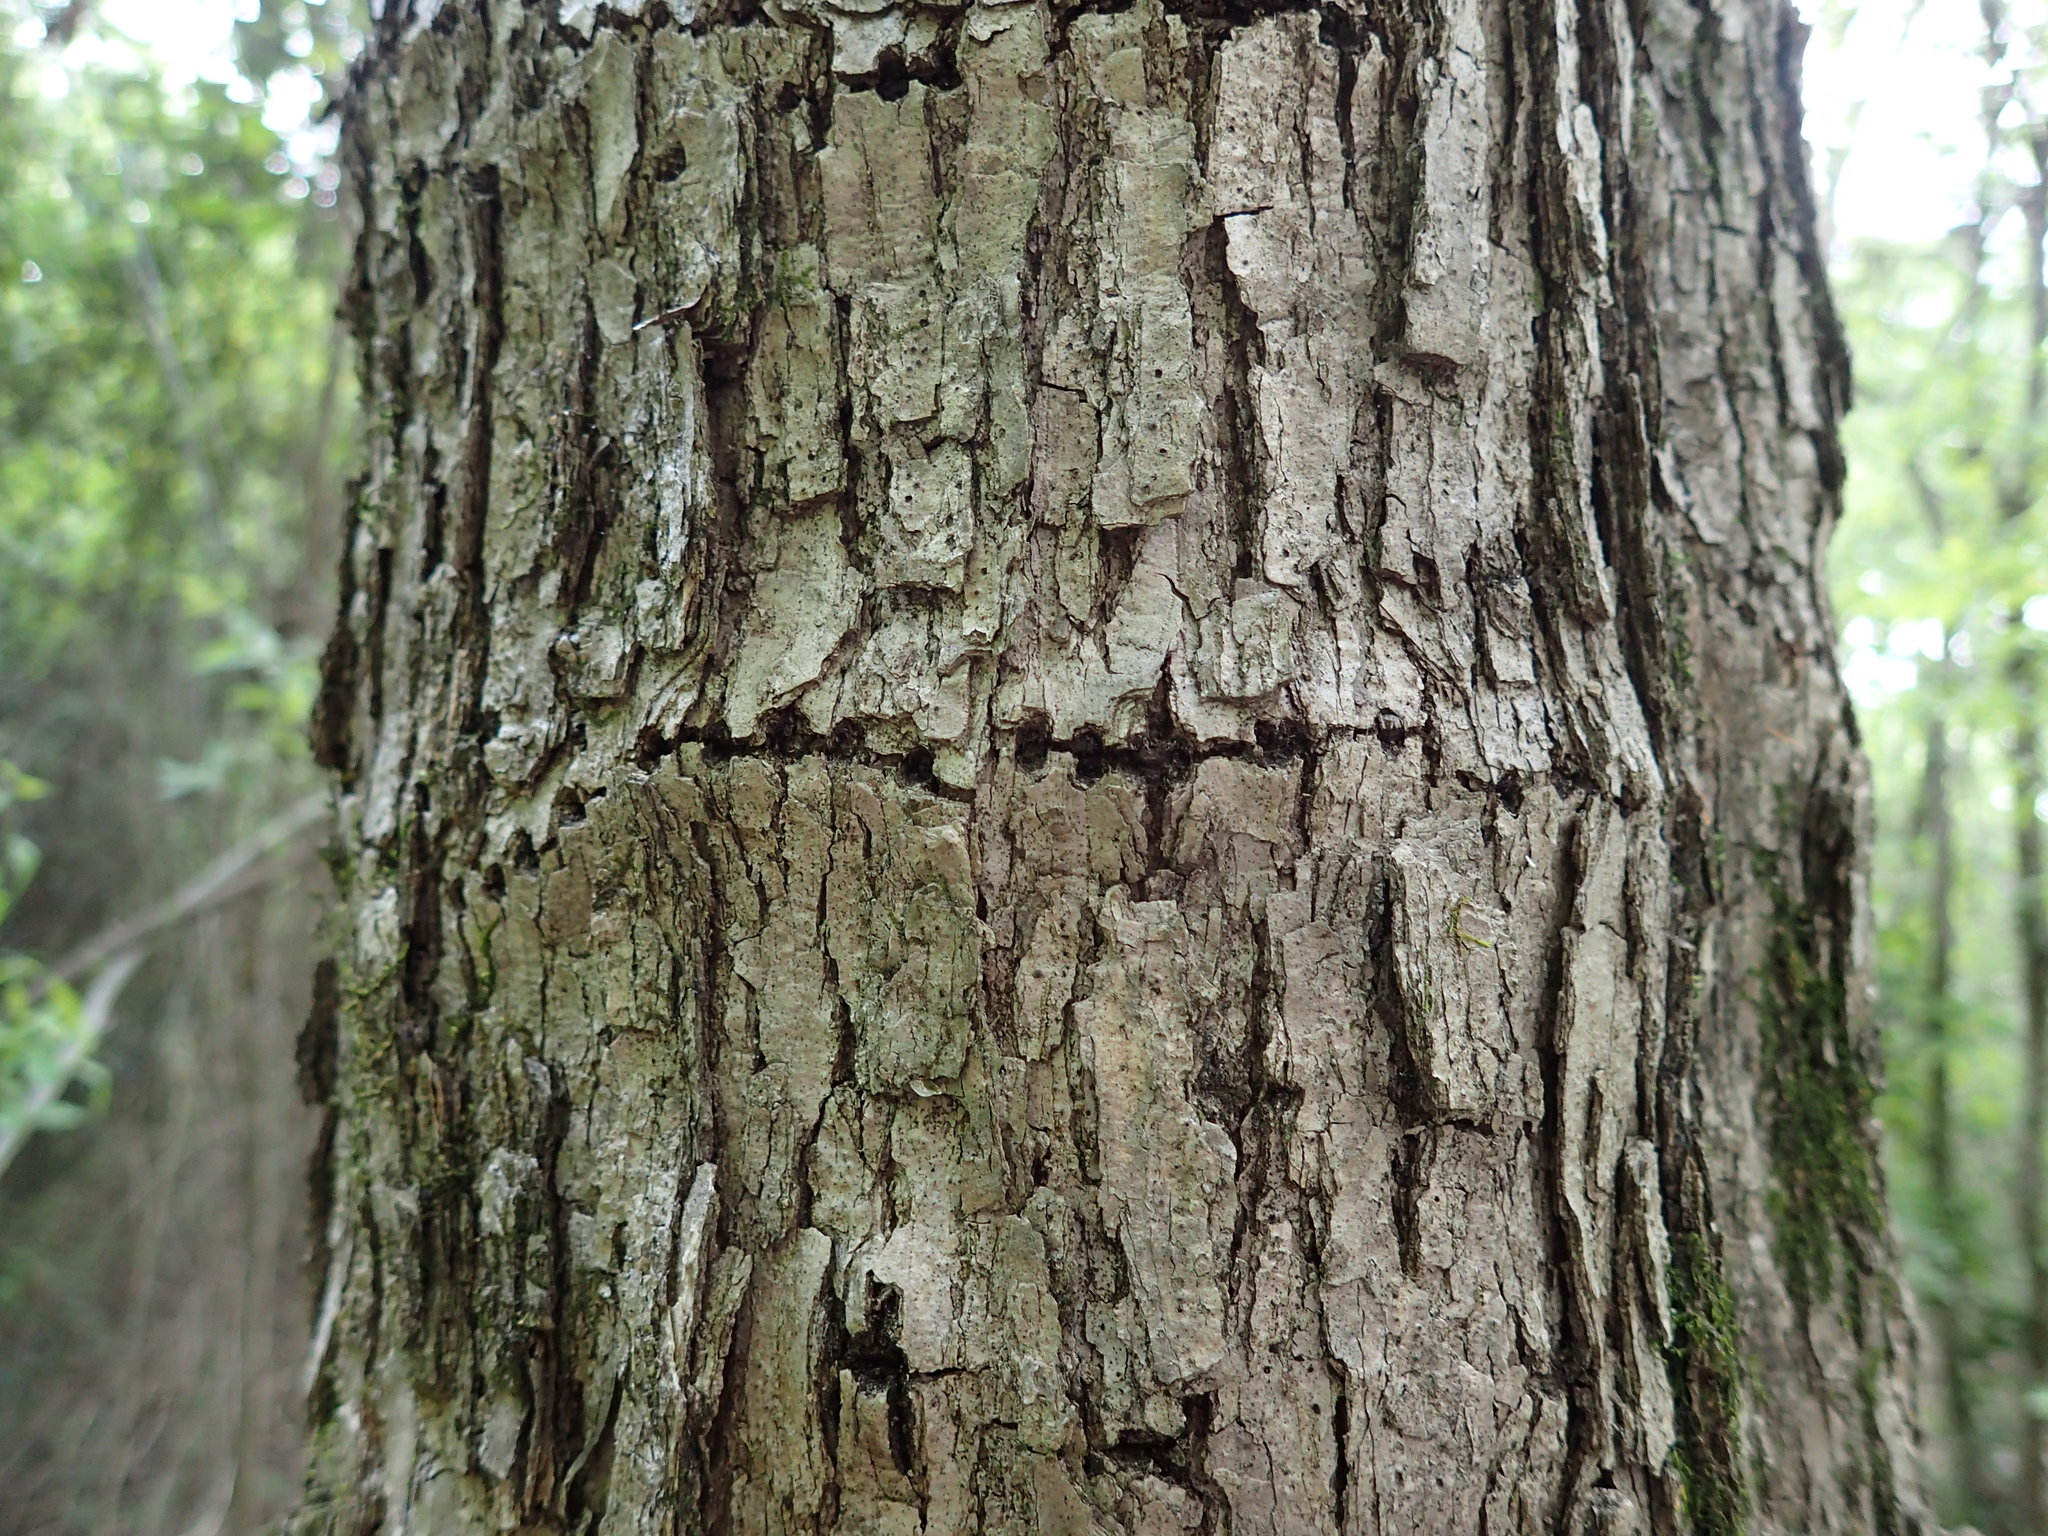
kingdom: Animalia
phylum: Chordata
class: Aves
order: Piciformes
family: Picidae
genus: Sphyrapicus
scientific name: Sphyrapicus varius
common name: Yellow-bellied sapsucker
